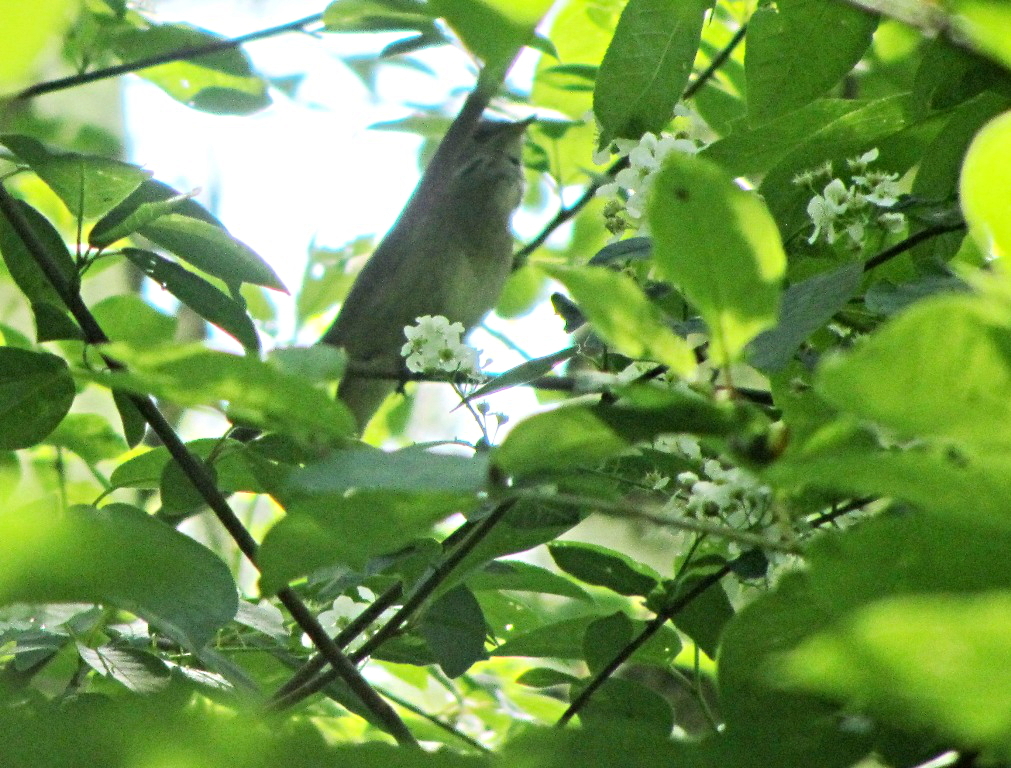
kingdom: Animalia
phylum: Chordata
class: Aves
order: Passeriformes
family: Muscicapidae
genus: Luscinia
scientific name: Luscinia luscinia
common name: Thrush nightingale
